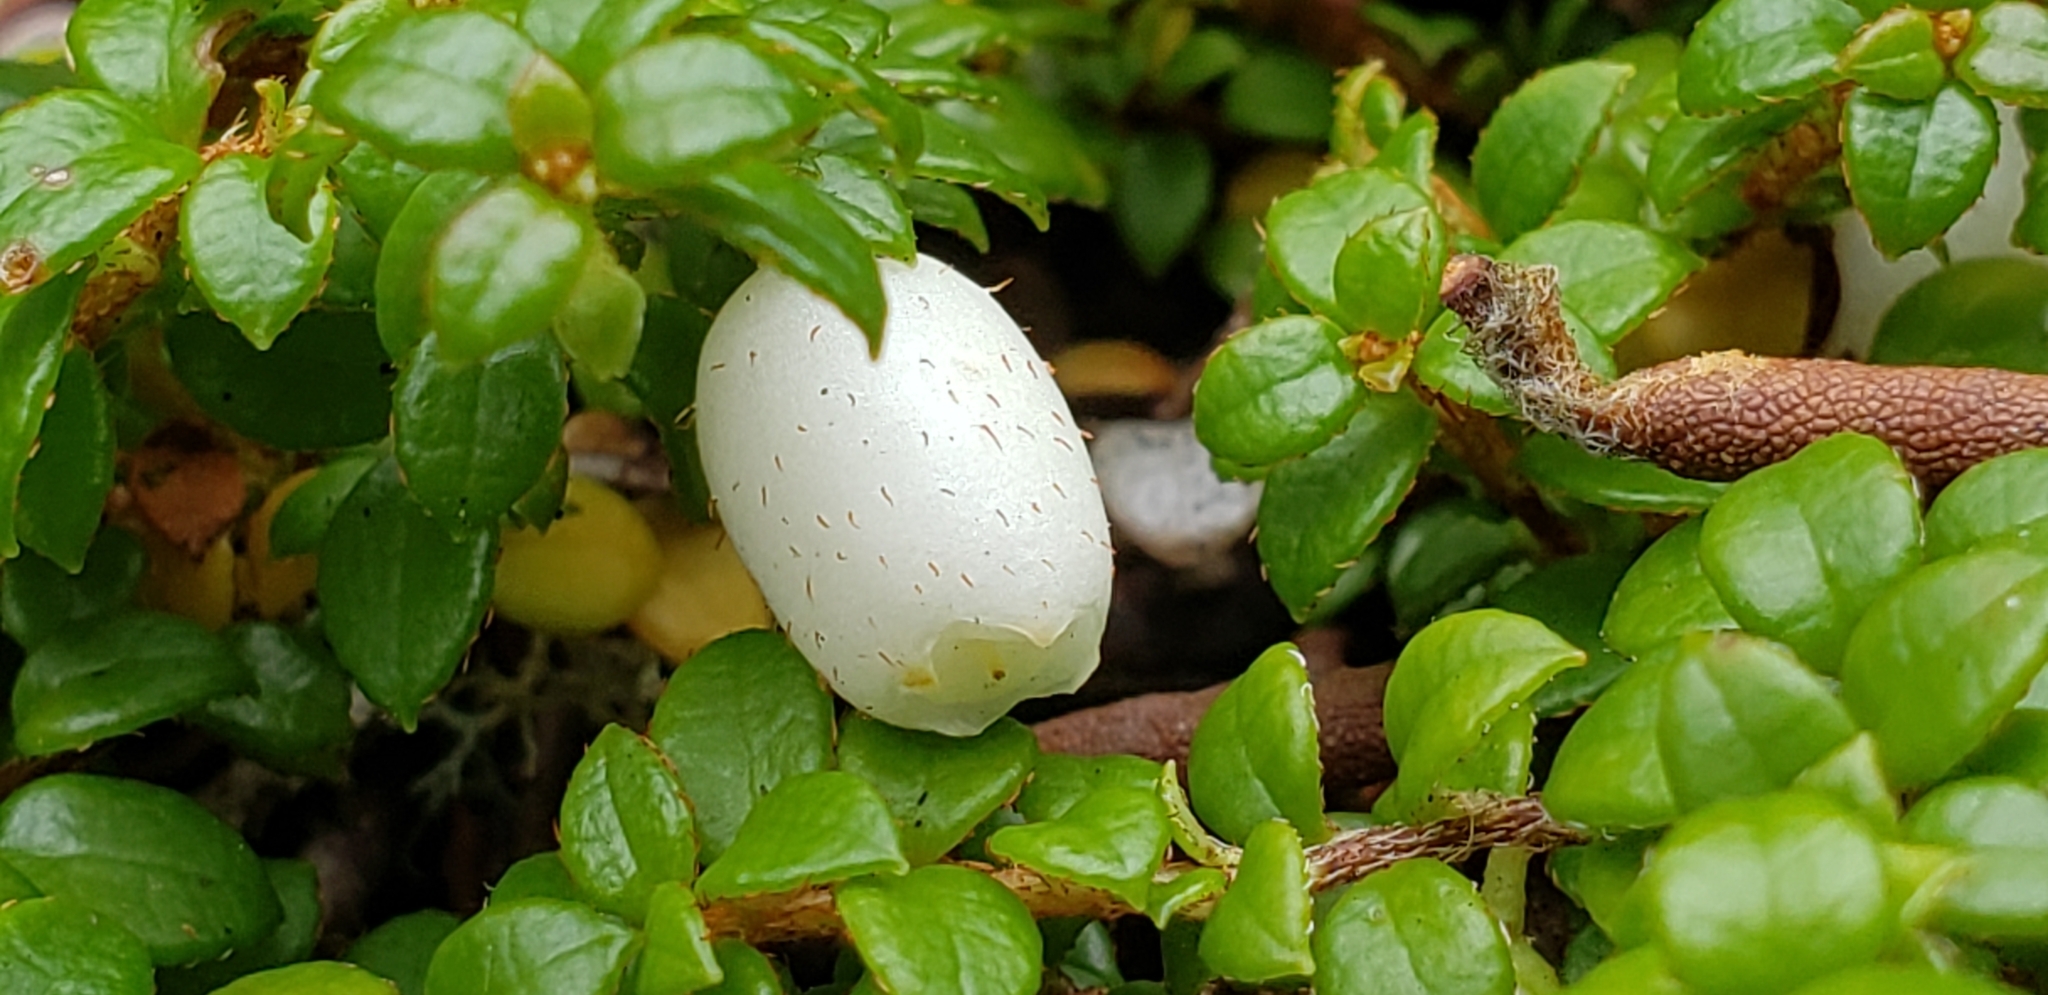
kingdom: Plantae
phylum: Tracheophyta
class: Magnoliopsida
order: Ericales
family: Ericaceae
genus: Gaultheria
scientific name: Gaultheria hispidula
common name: Cancer wintergreen
